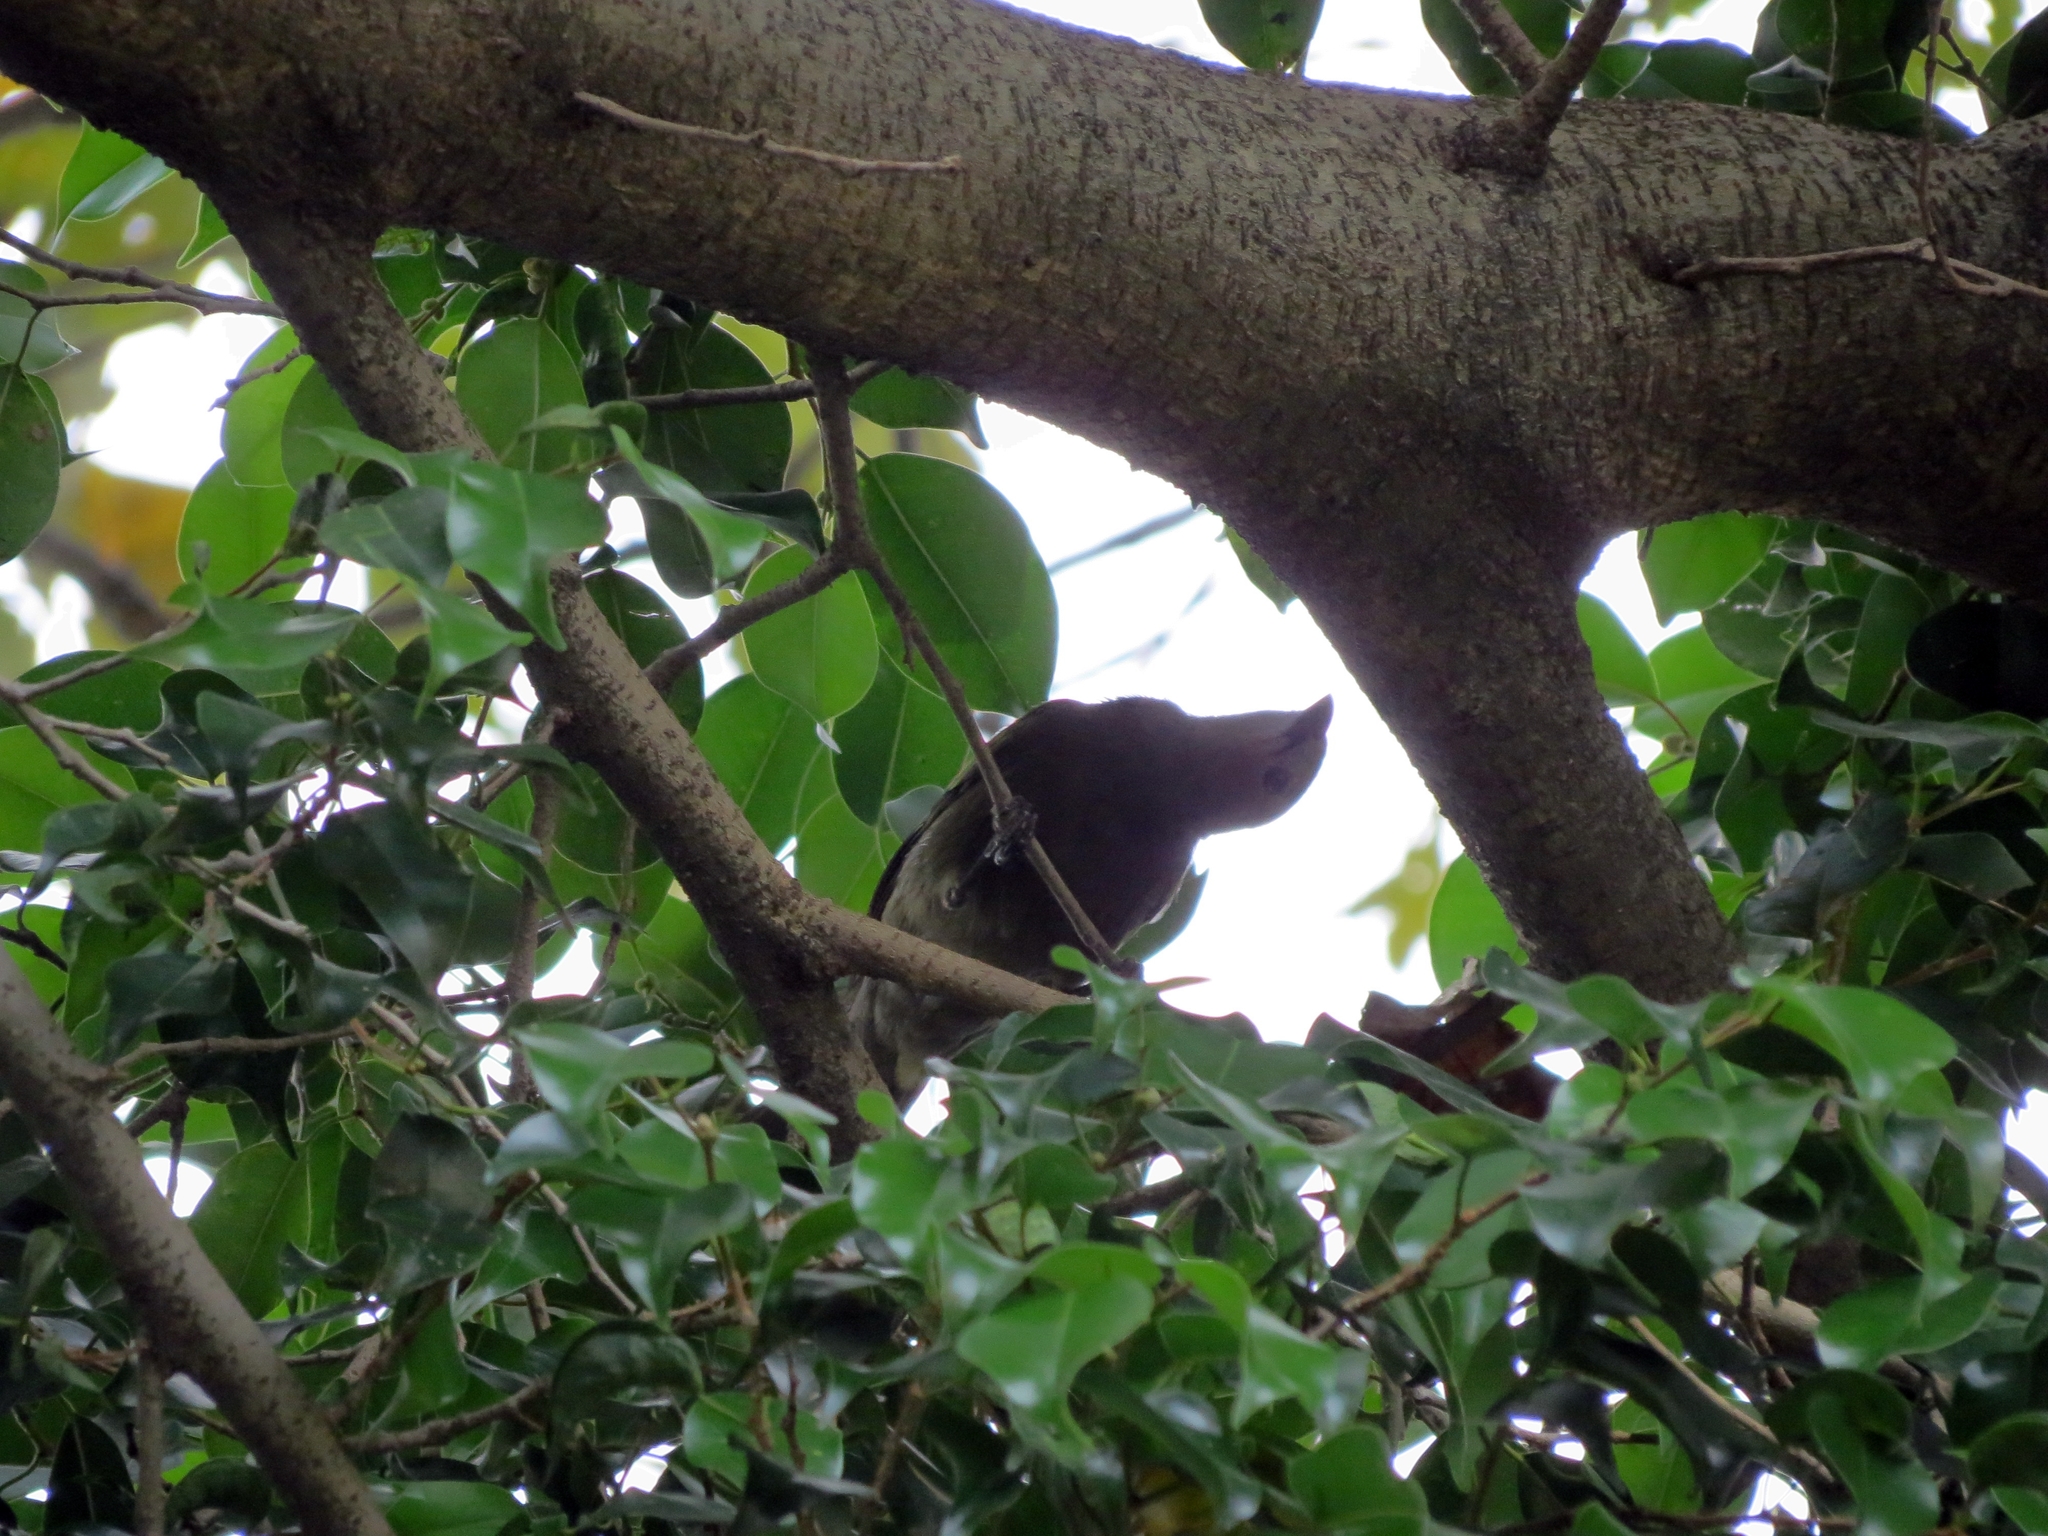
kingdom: Animalia
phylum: Chordata
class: Aves
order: Passeriformes
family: Thraupidae
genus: Thraupis
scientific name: Thraupis palmarum
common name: Palm tanager
